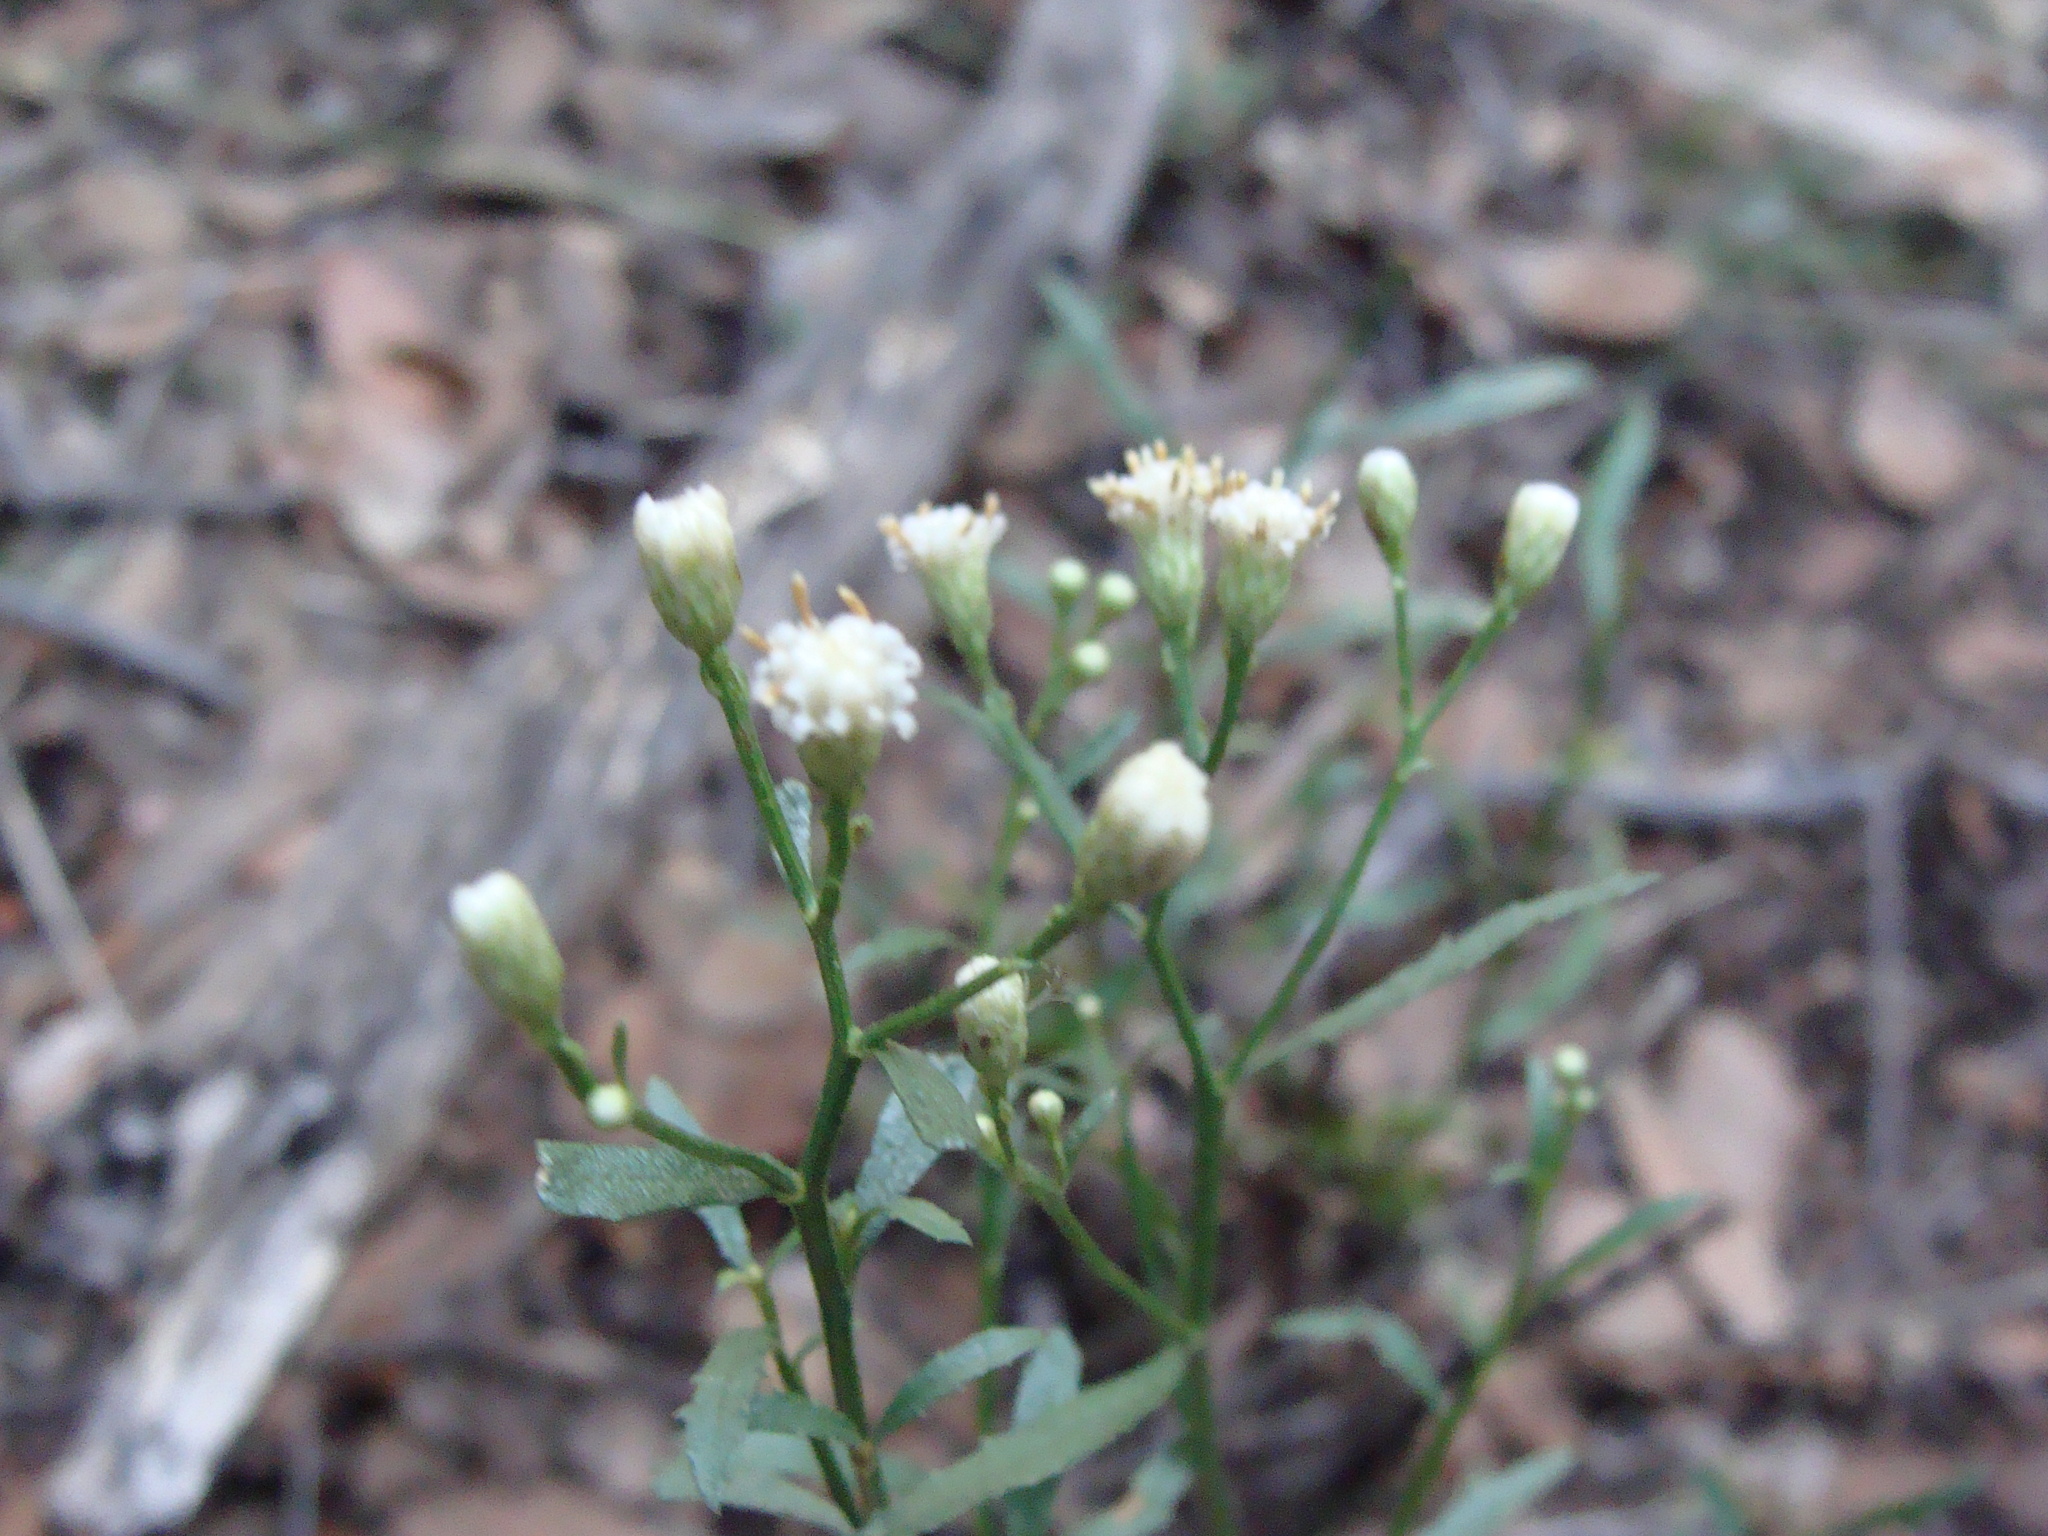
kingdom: Plantae
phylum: Tracheophyta
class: Magnoliopsida
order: Asterales
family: Asteraceae
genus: Baccharis
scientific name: Baccharis thesioides
